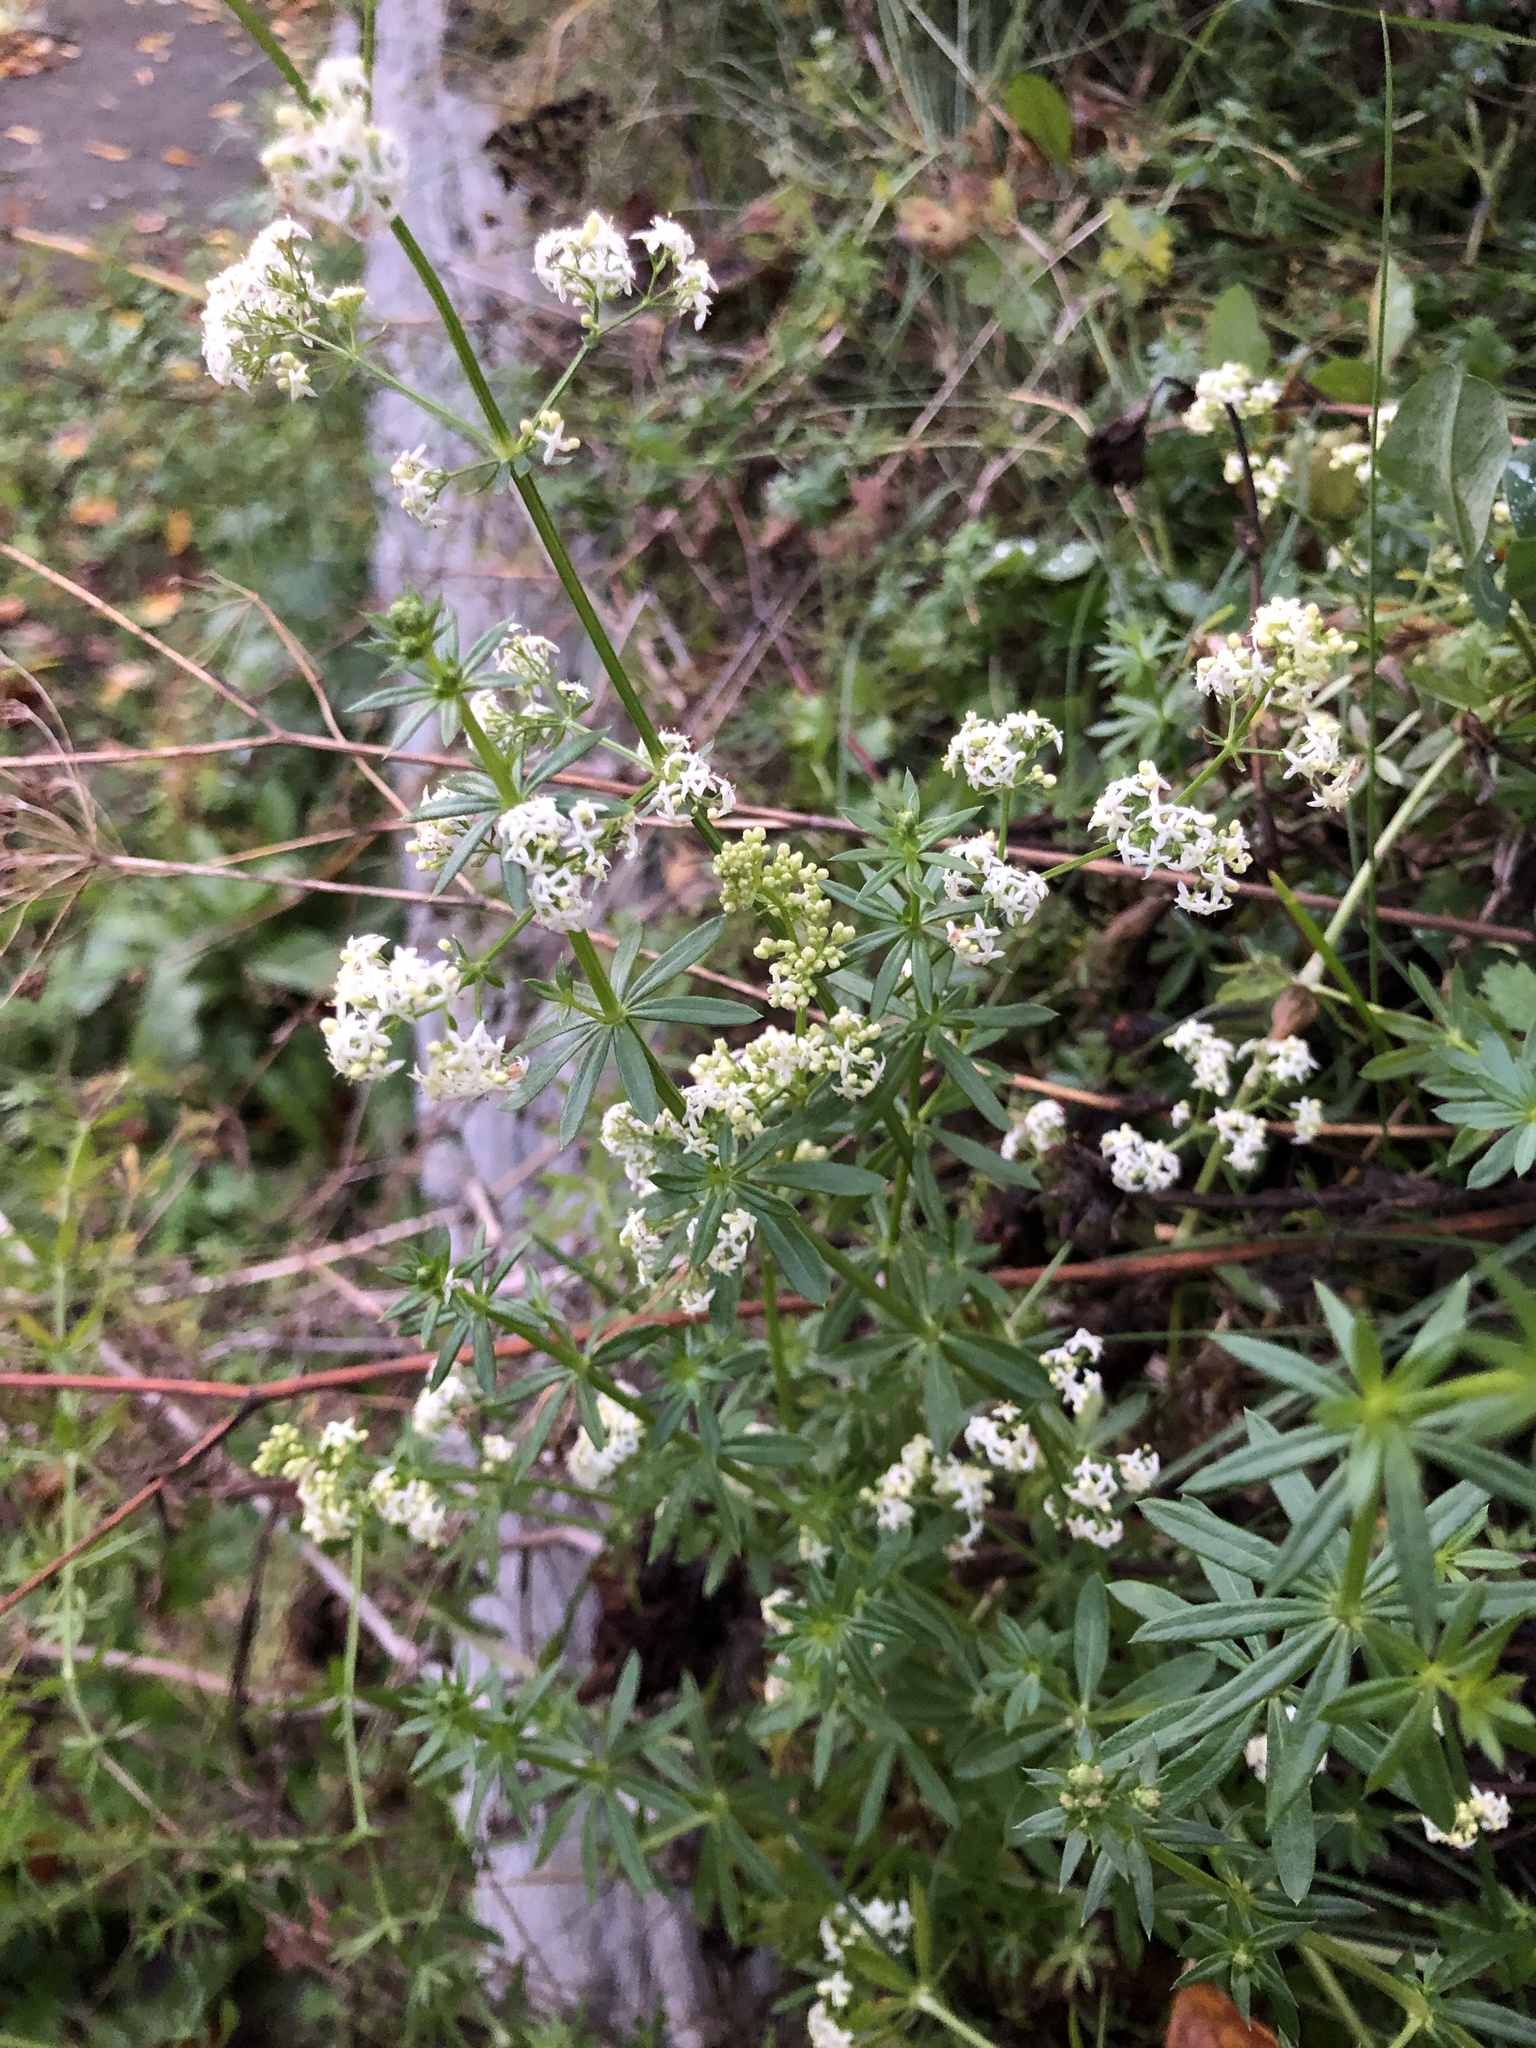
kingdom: Plantae
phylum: Tracheophyta
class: Magnoliopsida
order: Gentianales
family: Rubiaceae
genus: Galium
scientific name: Galium mollugo
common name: Hedge bedstraw
